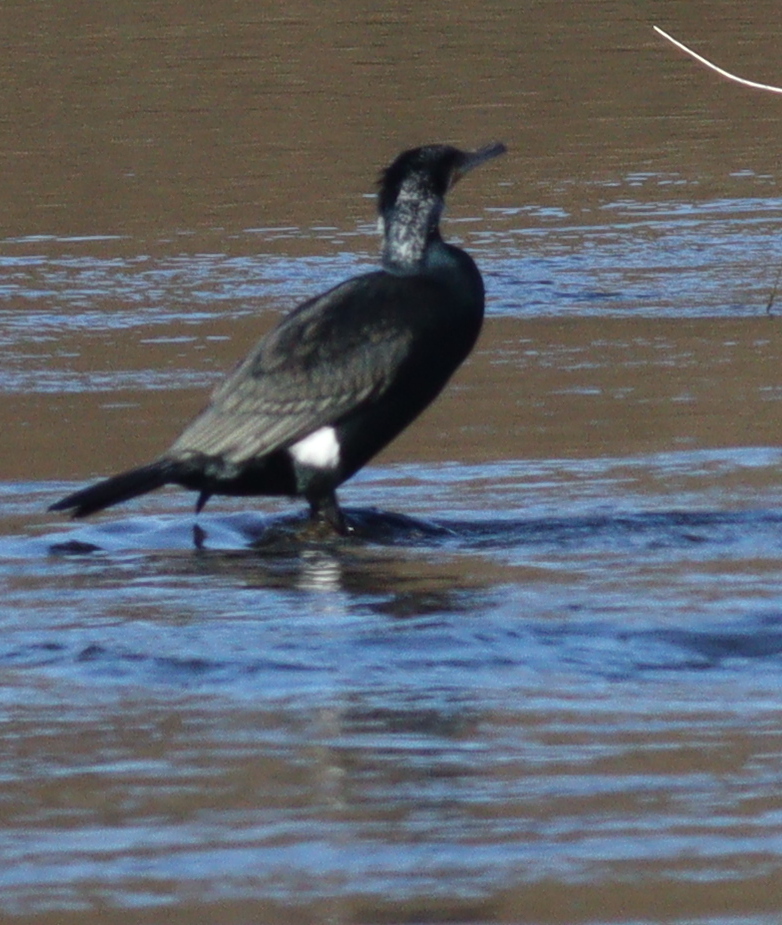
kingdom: Animalia
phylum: Chordata
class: Aves
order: Suliformes
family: Phalacrocoracidae
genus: Phalacrocorax
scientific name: Phalacrocorax carbo
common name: Great cormorant
